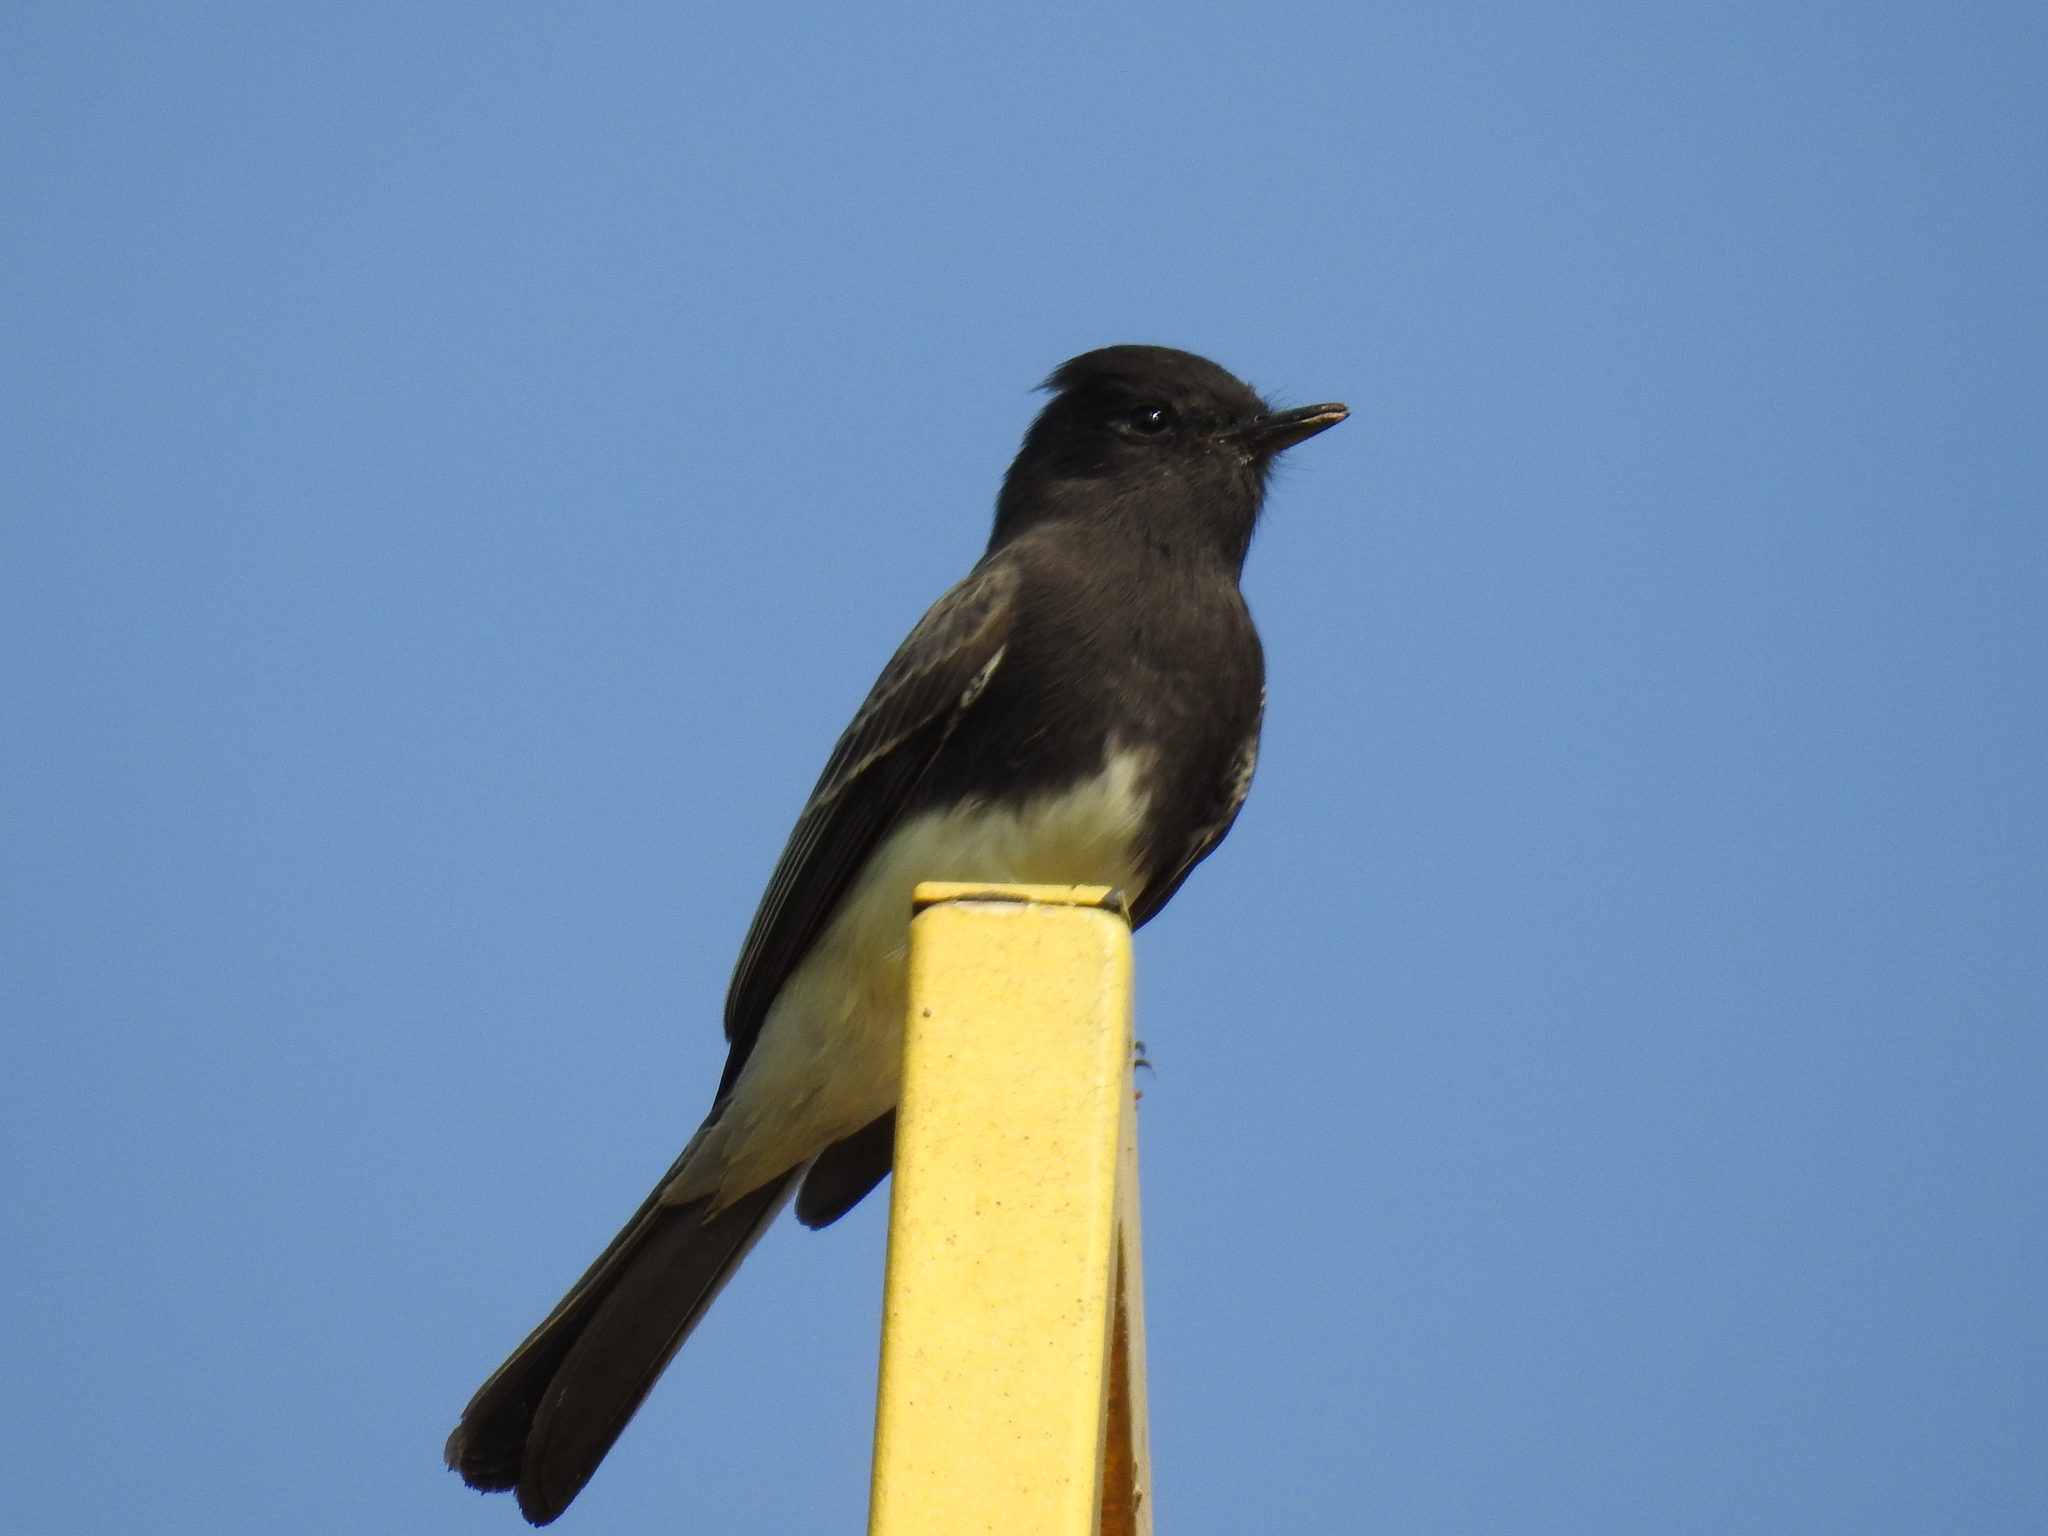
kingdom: Animalia
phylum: Chordata
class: Aves
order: Passeriformes
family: Tyrannidae
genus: Sayornis
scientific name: Sayornis nigricans
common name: Black phoebe
